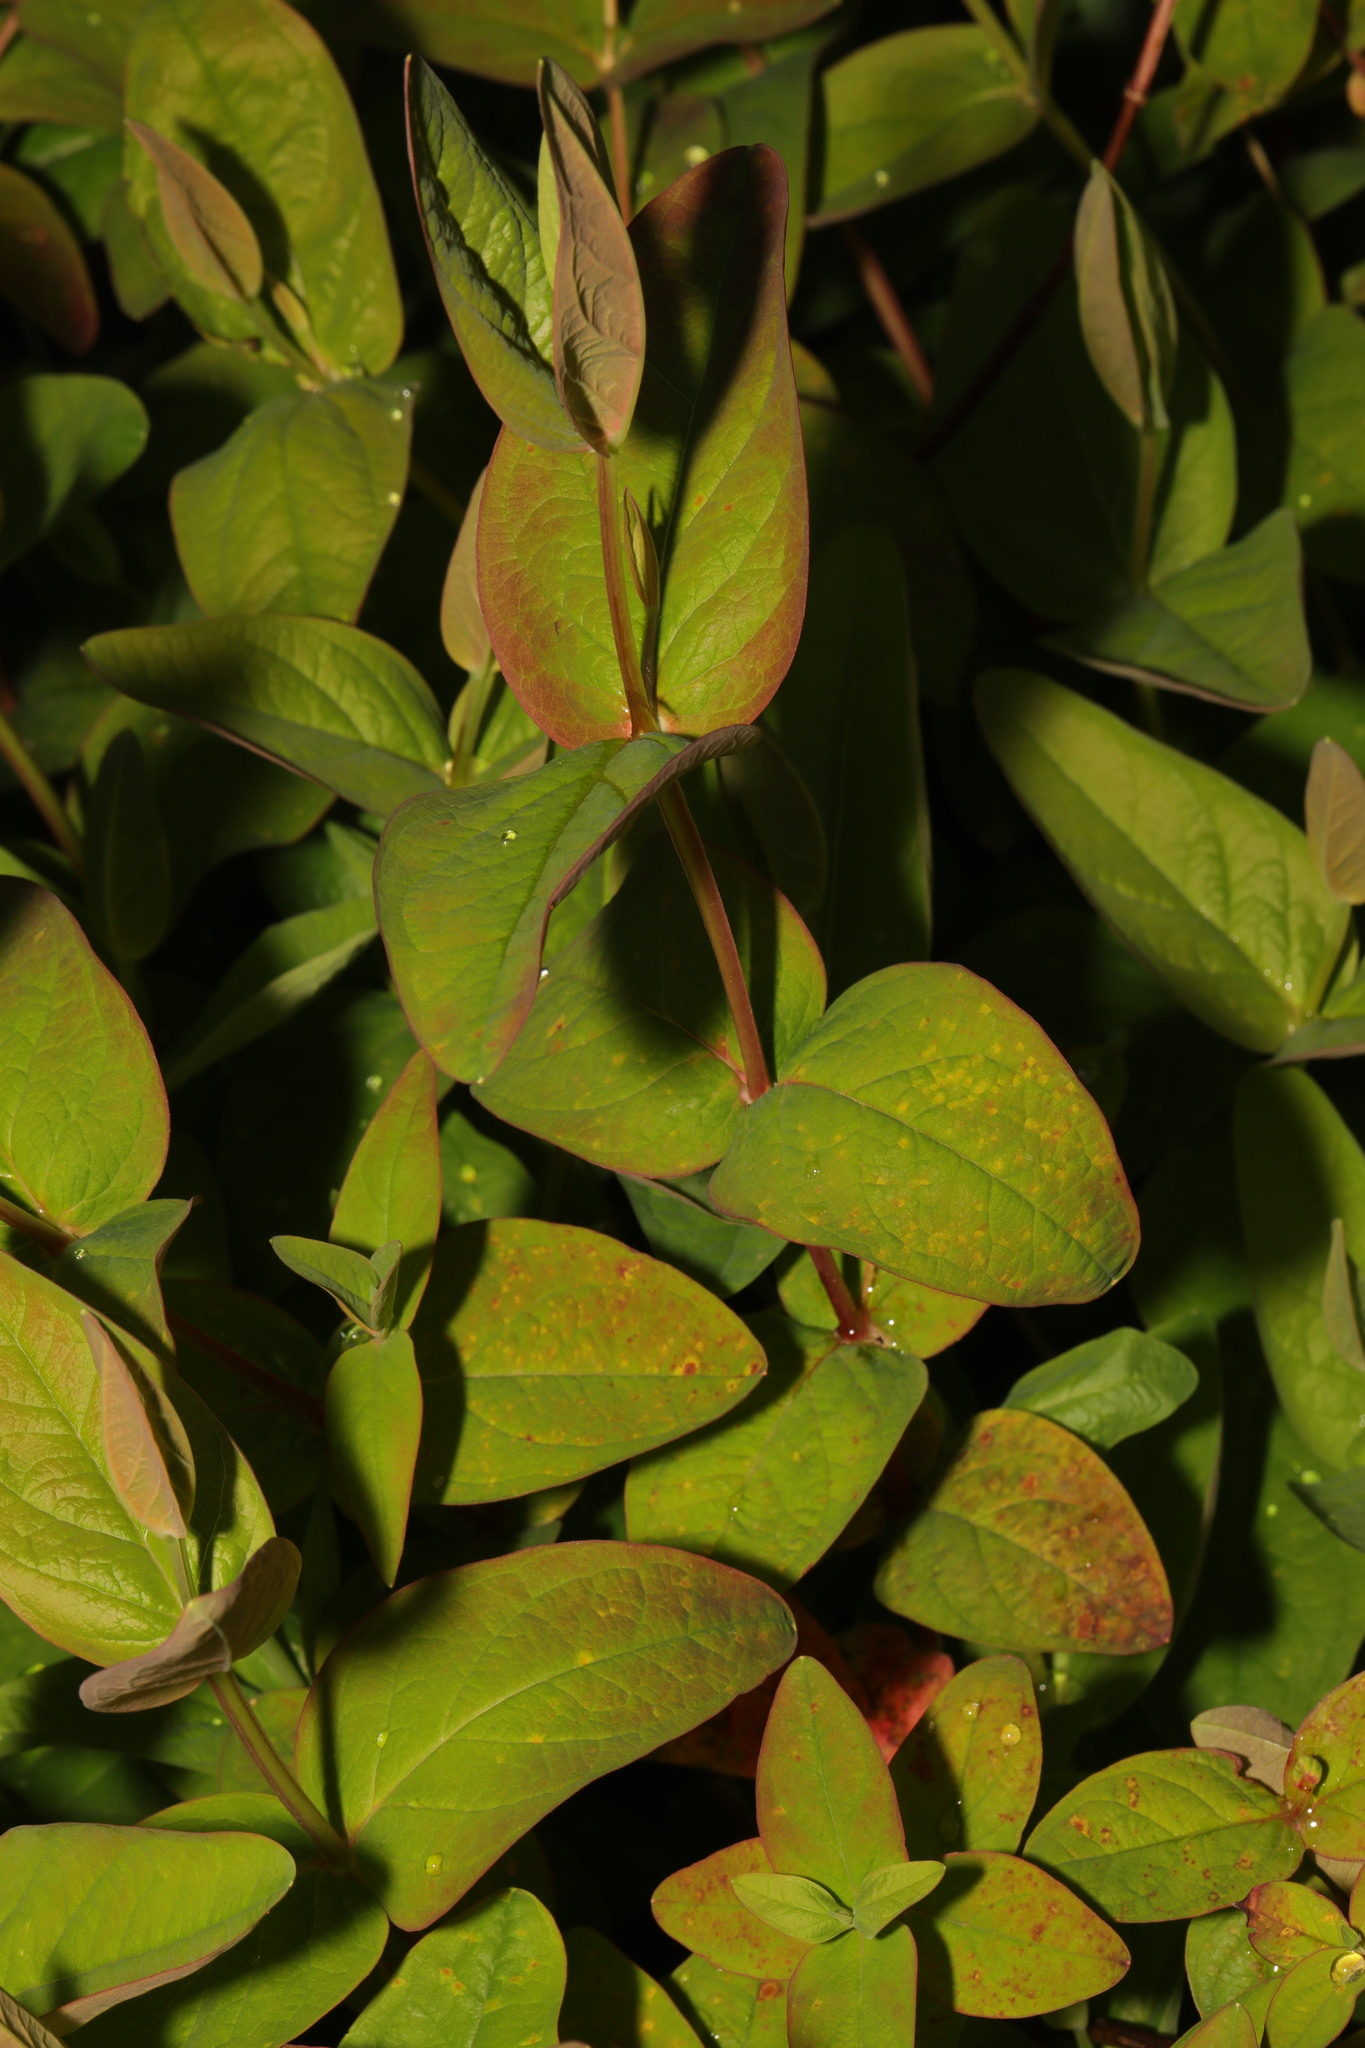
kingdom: Plantae
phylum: Tracheophyta
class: Magnoliopsida
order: Malpighiales
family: Hypericaceae
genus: Hypericum
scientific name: Hypericum androsaemum
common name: Sweet-amber
